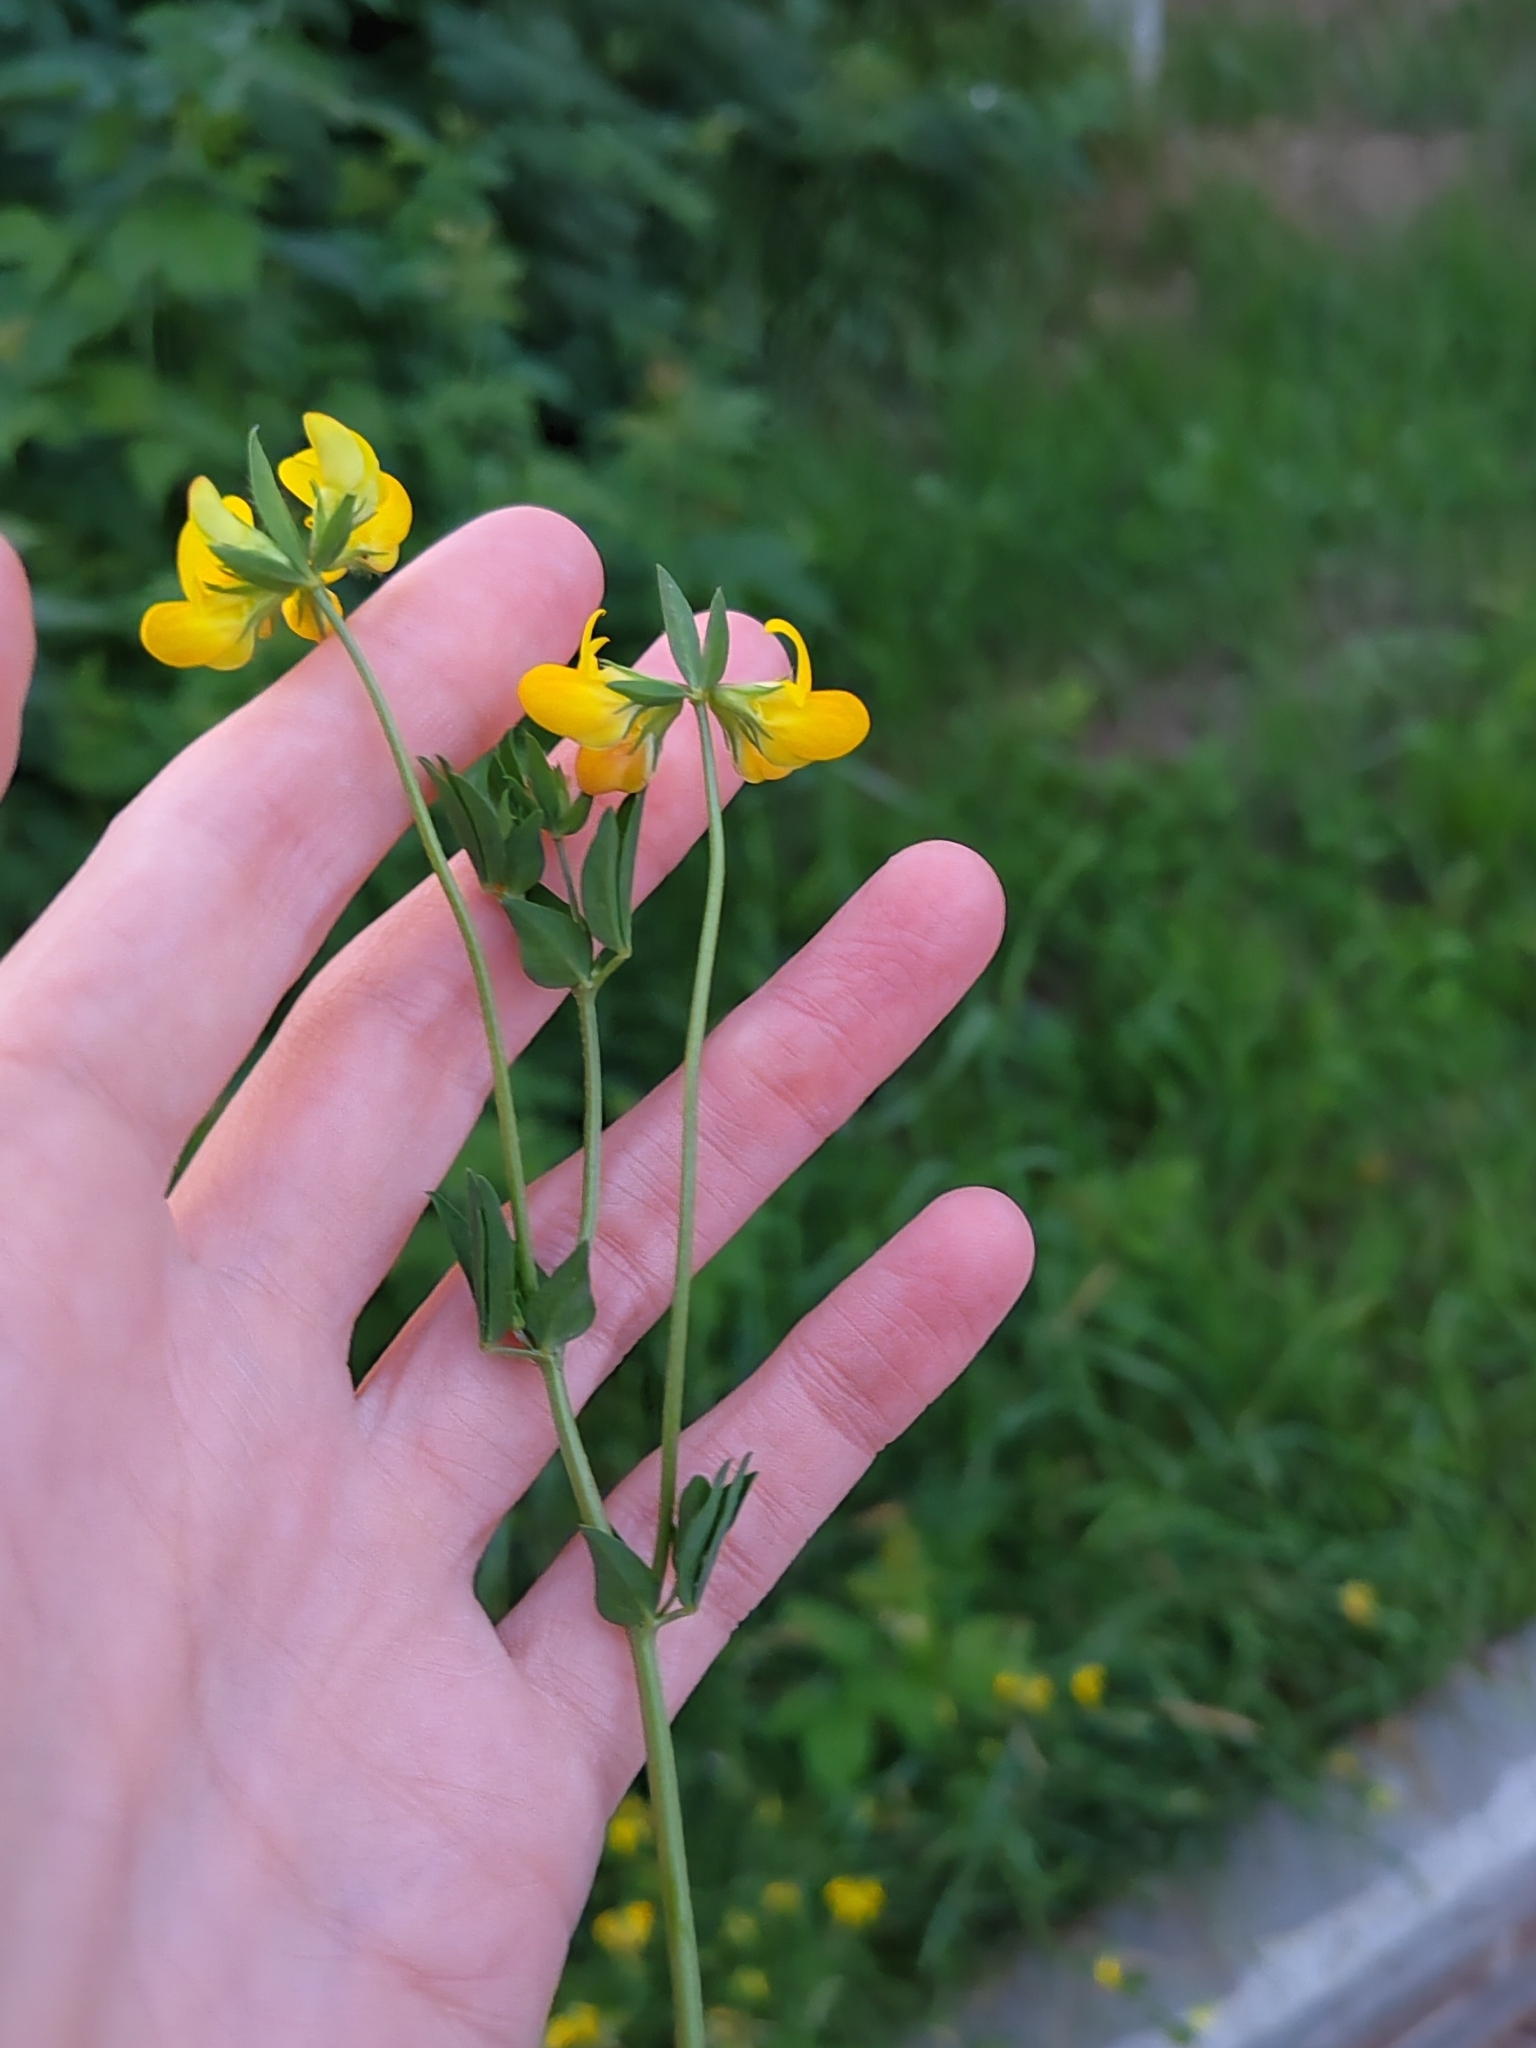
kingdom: Plantae
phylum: Tracheophyta
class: Magnoliopsida
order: Fabales
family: Fabaceae
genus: Lotus
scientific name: Lotus corniculatus
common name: Common bird's-foot-trefoil
